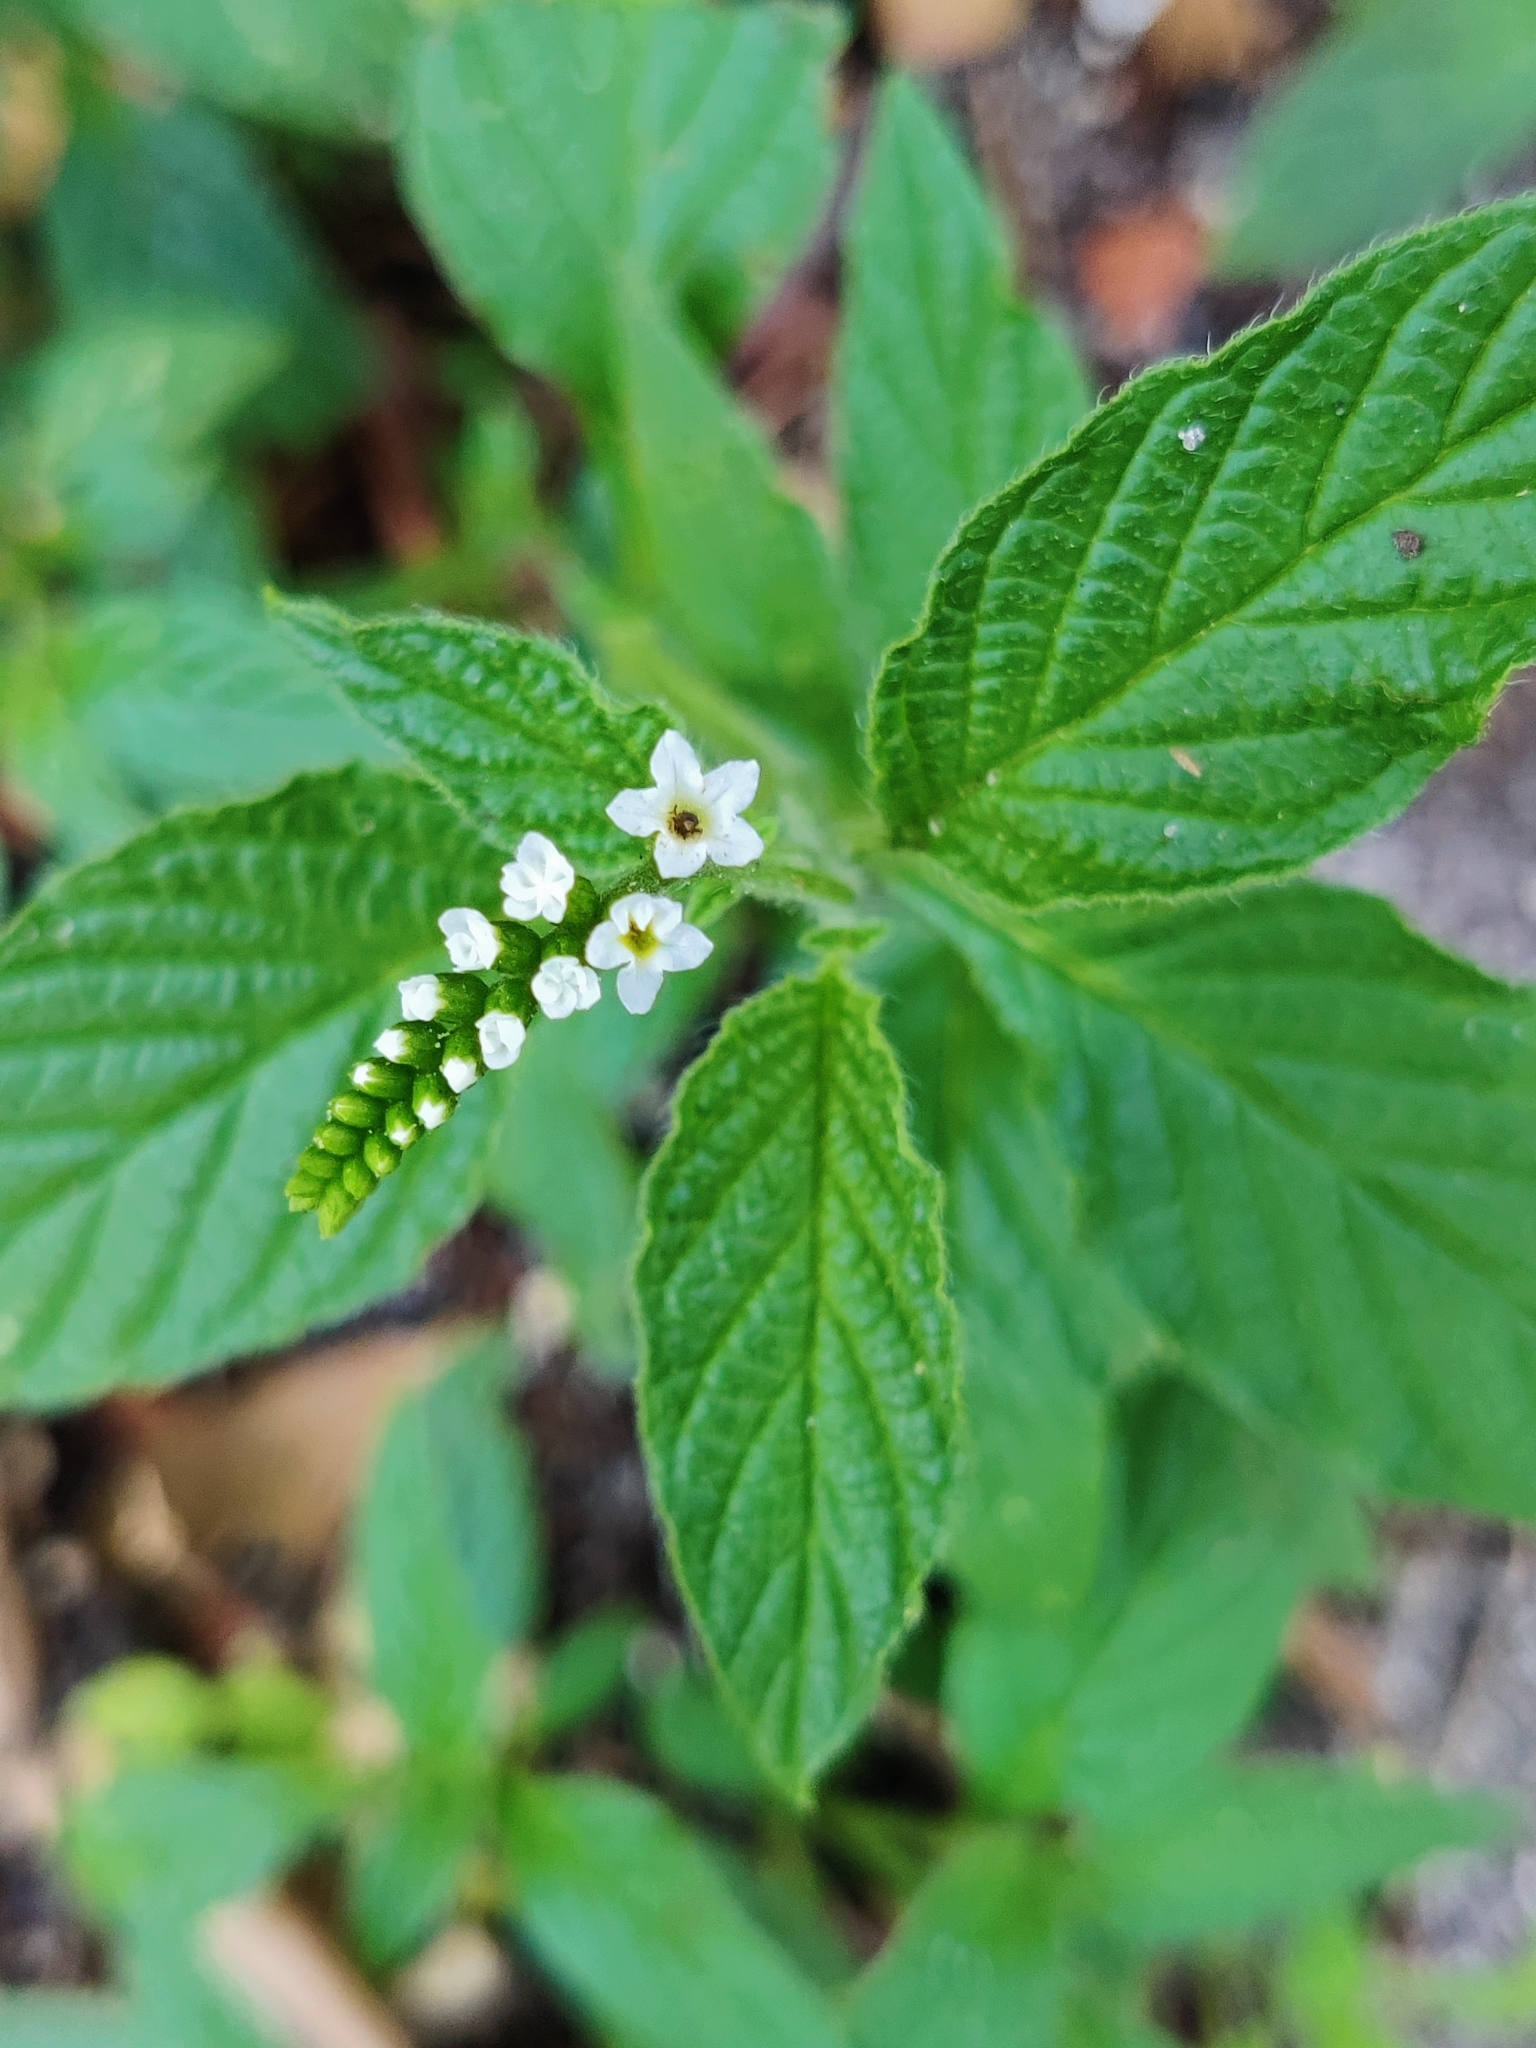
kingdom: Plantae
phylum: Tracheophyta
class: Magnoliopsida
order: Boraginales
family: Heliotropiaceae
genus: Heliotropium
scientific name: Heliotropium angiospermum
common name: Eye bright
